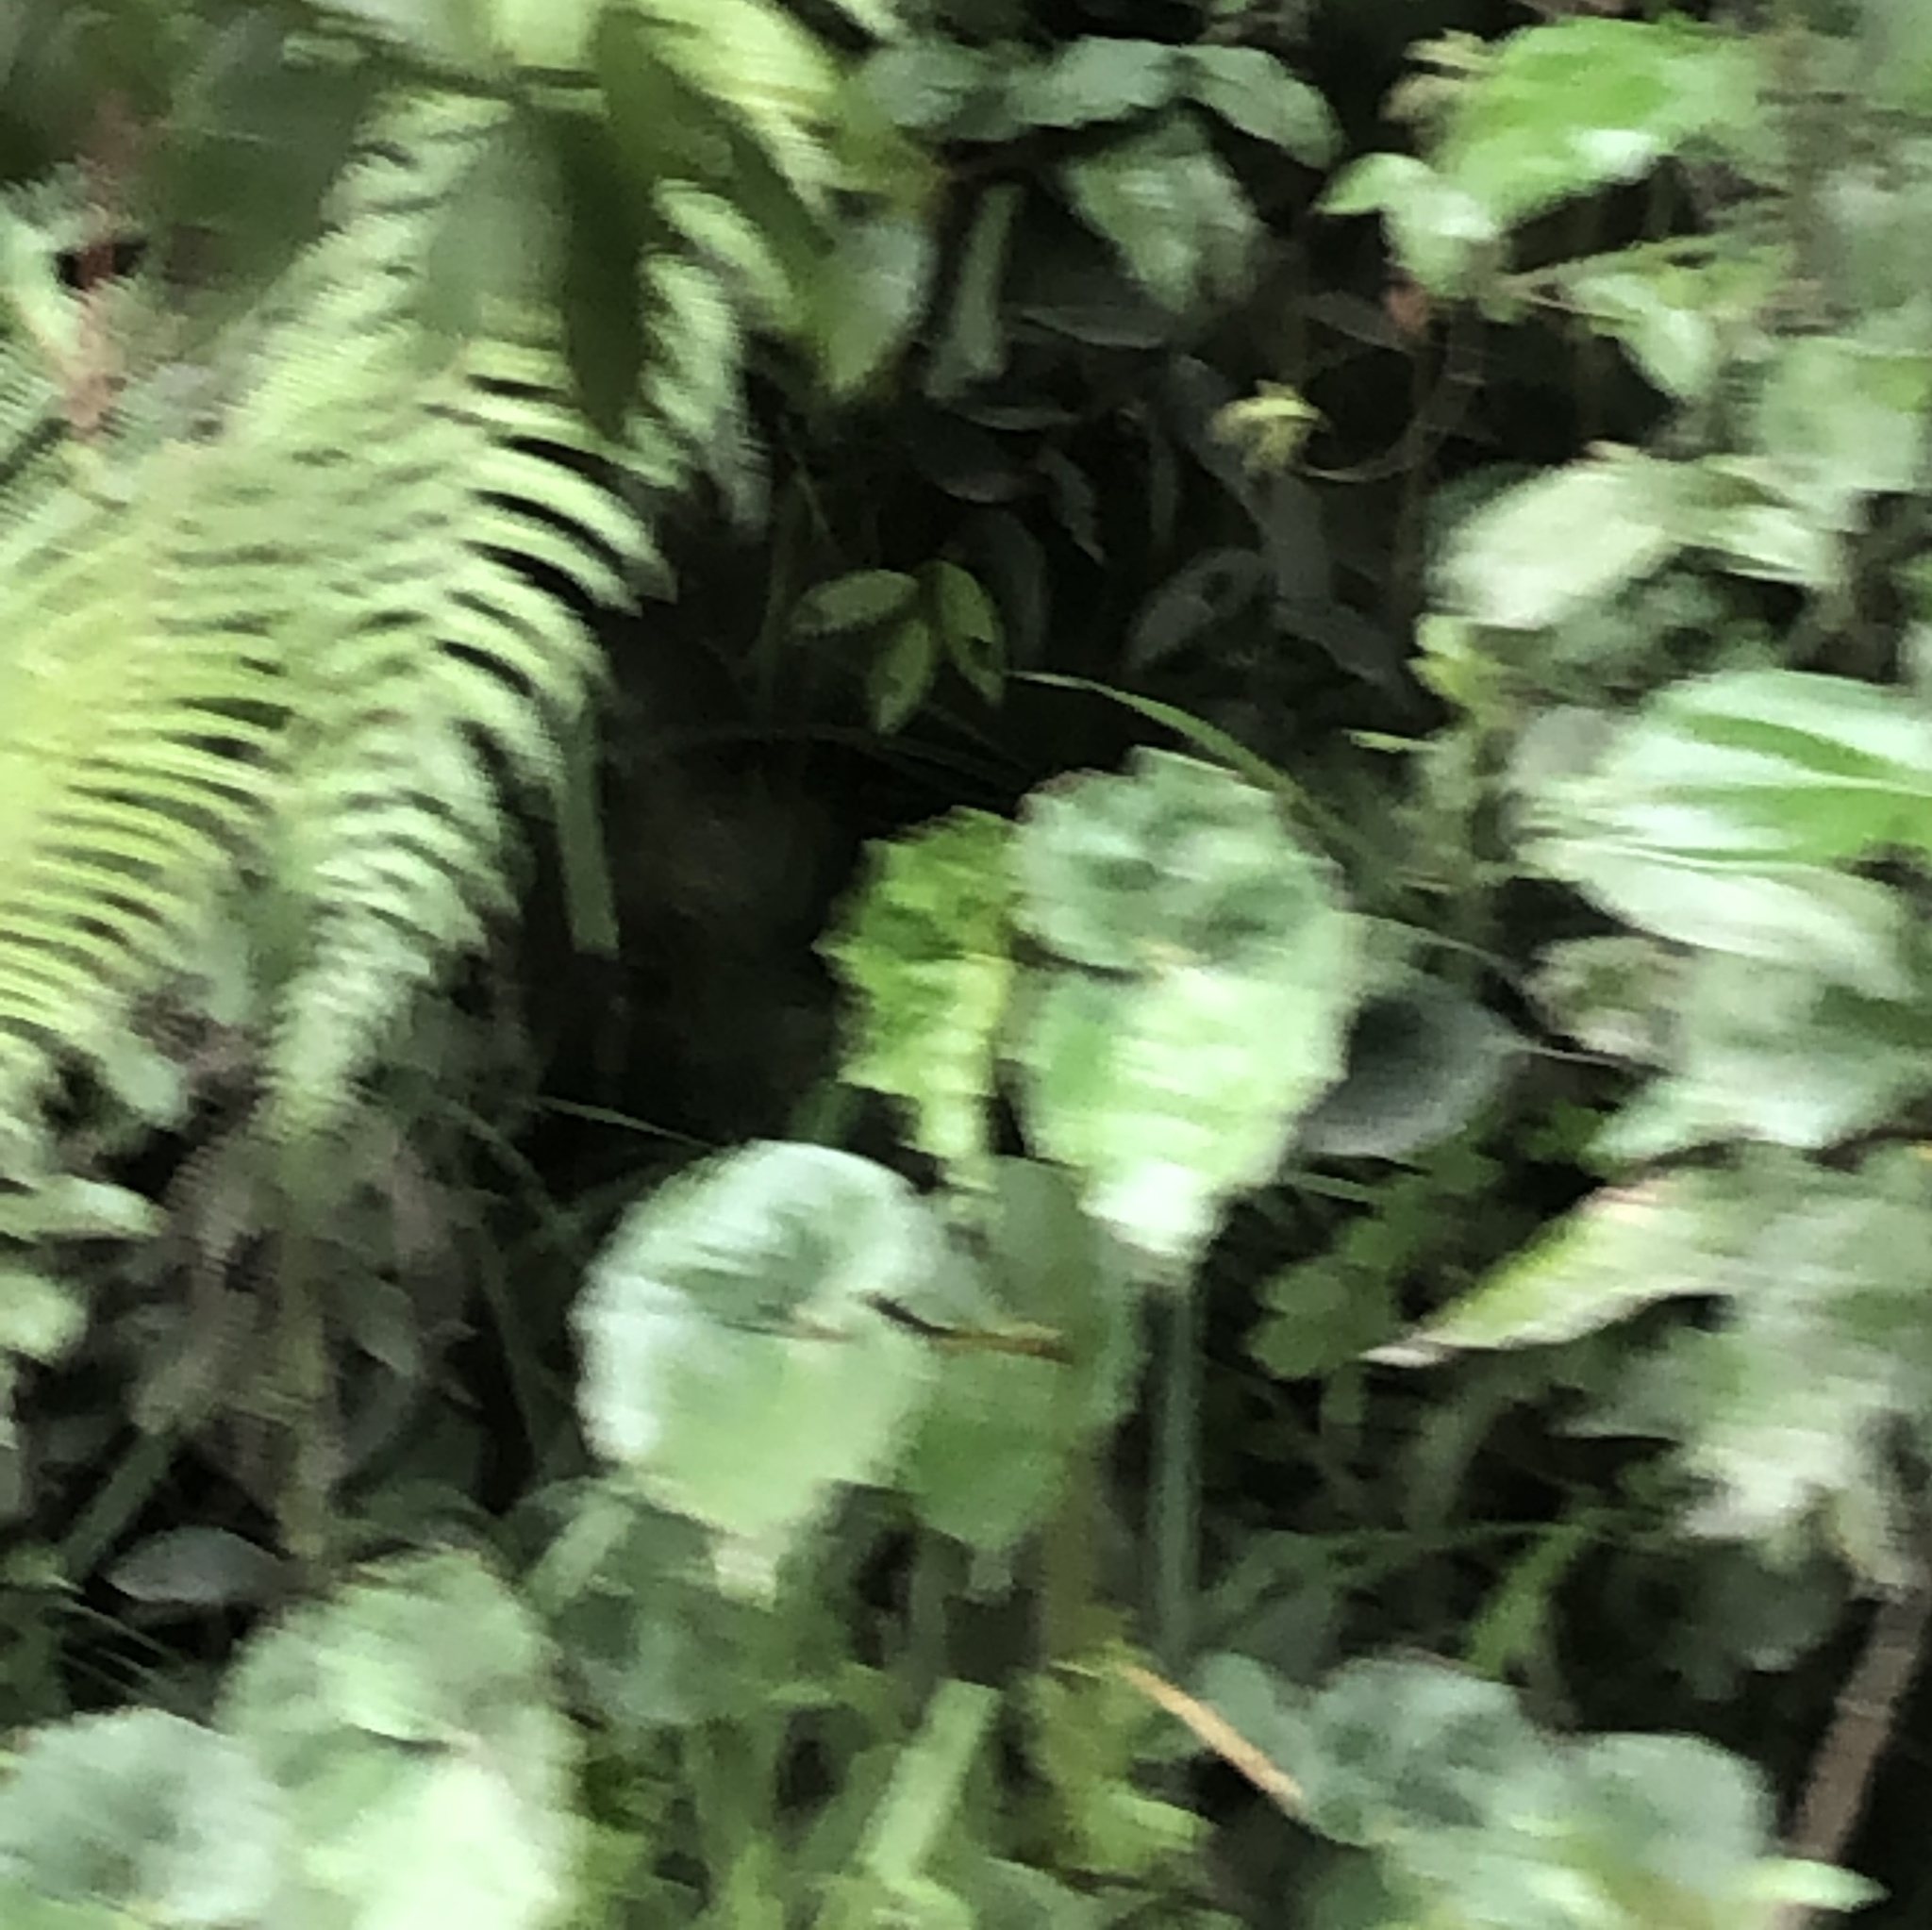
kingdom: Plantae
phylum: Tracheophyta
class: Magnoliopsida
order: Cucurbitales
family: Begoniaceae
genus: Begonia
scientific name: Begonia bracteosa
